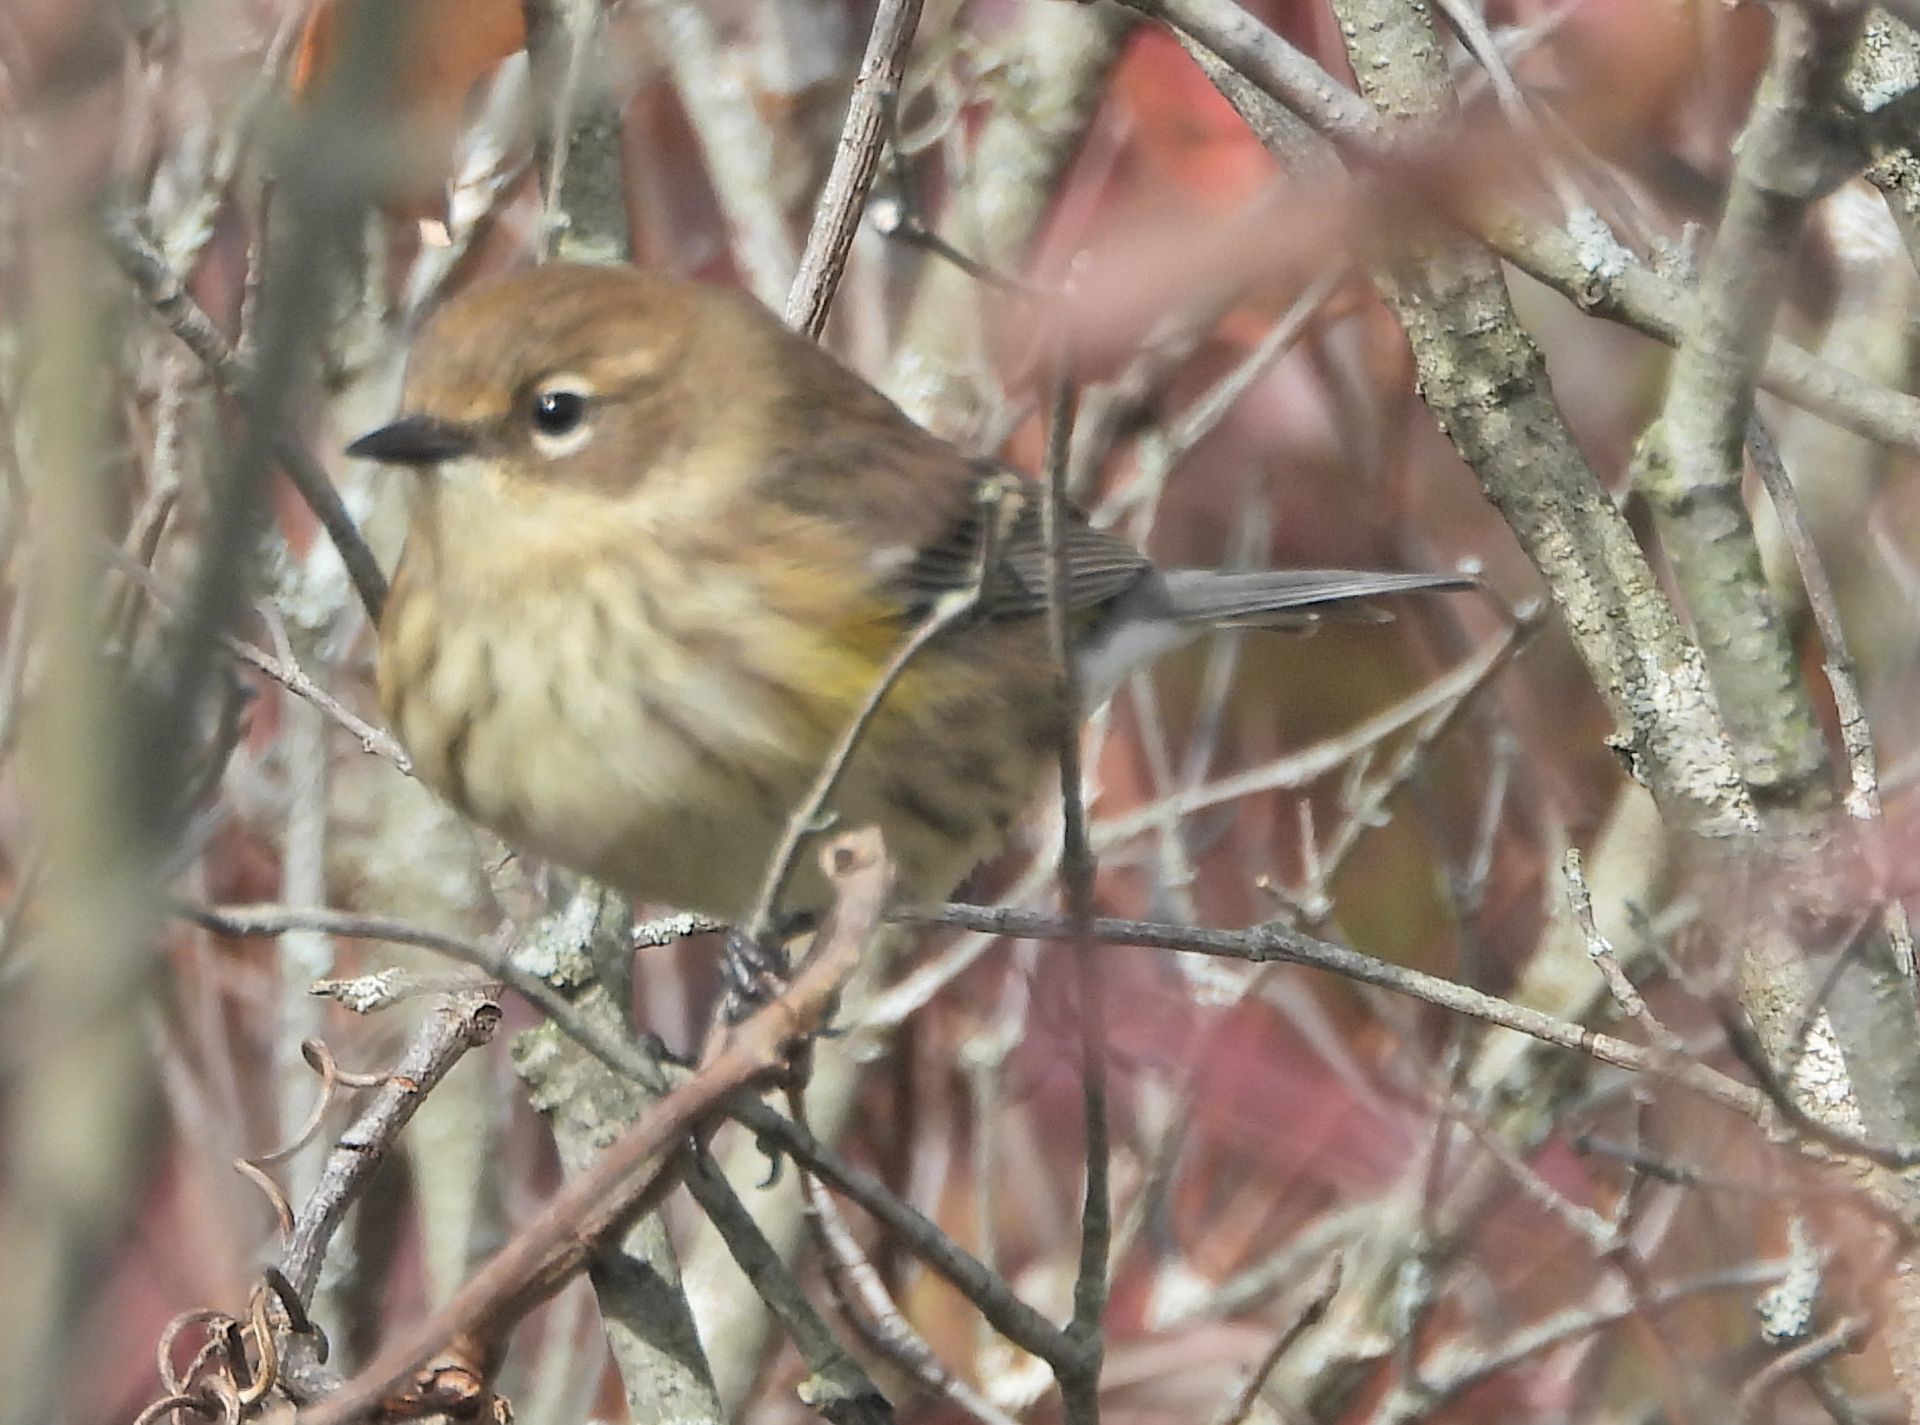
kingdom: Animalia
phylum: Chordata
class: Aves
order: Passeriformes
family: Parulidae
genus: Setophaga
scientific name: Setophaga coronata
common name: Myrtle warbler
